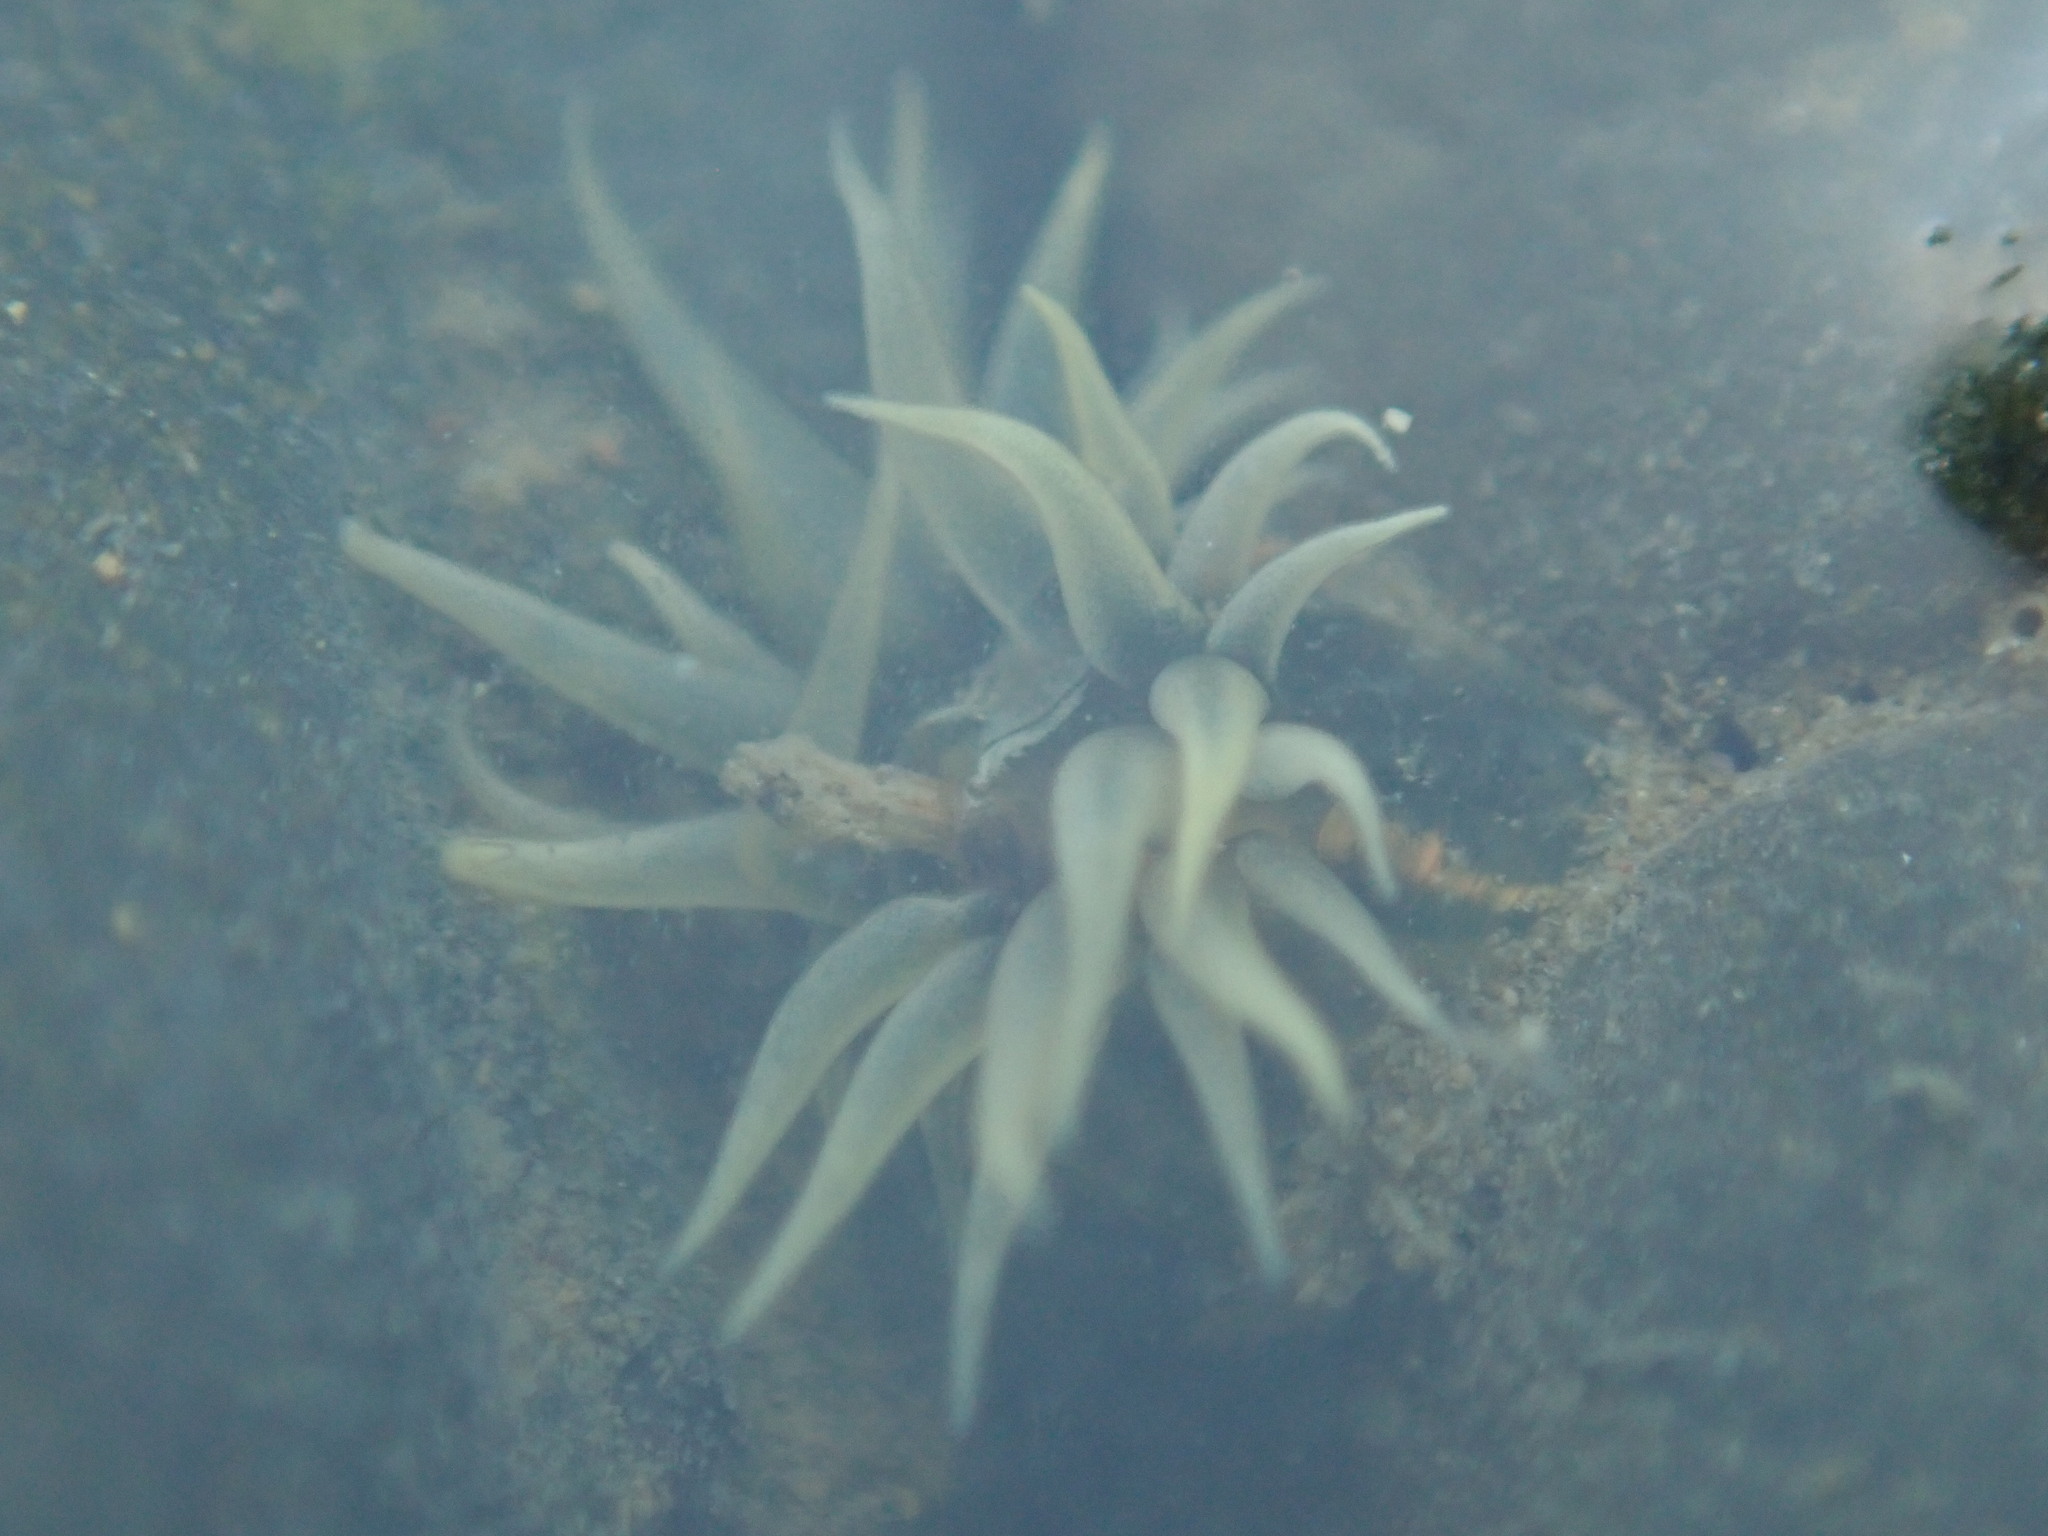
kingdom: Animalia
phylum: Cnidaria
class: Anthozoa
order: Actiniaria
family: Diadumenidae
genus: Diadumene
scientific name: Diadumene lineata
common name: Orange-striped anemone
